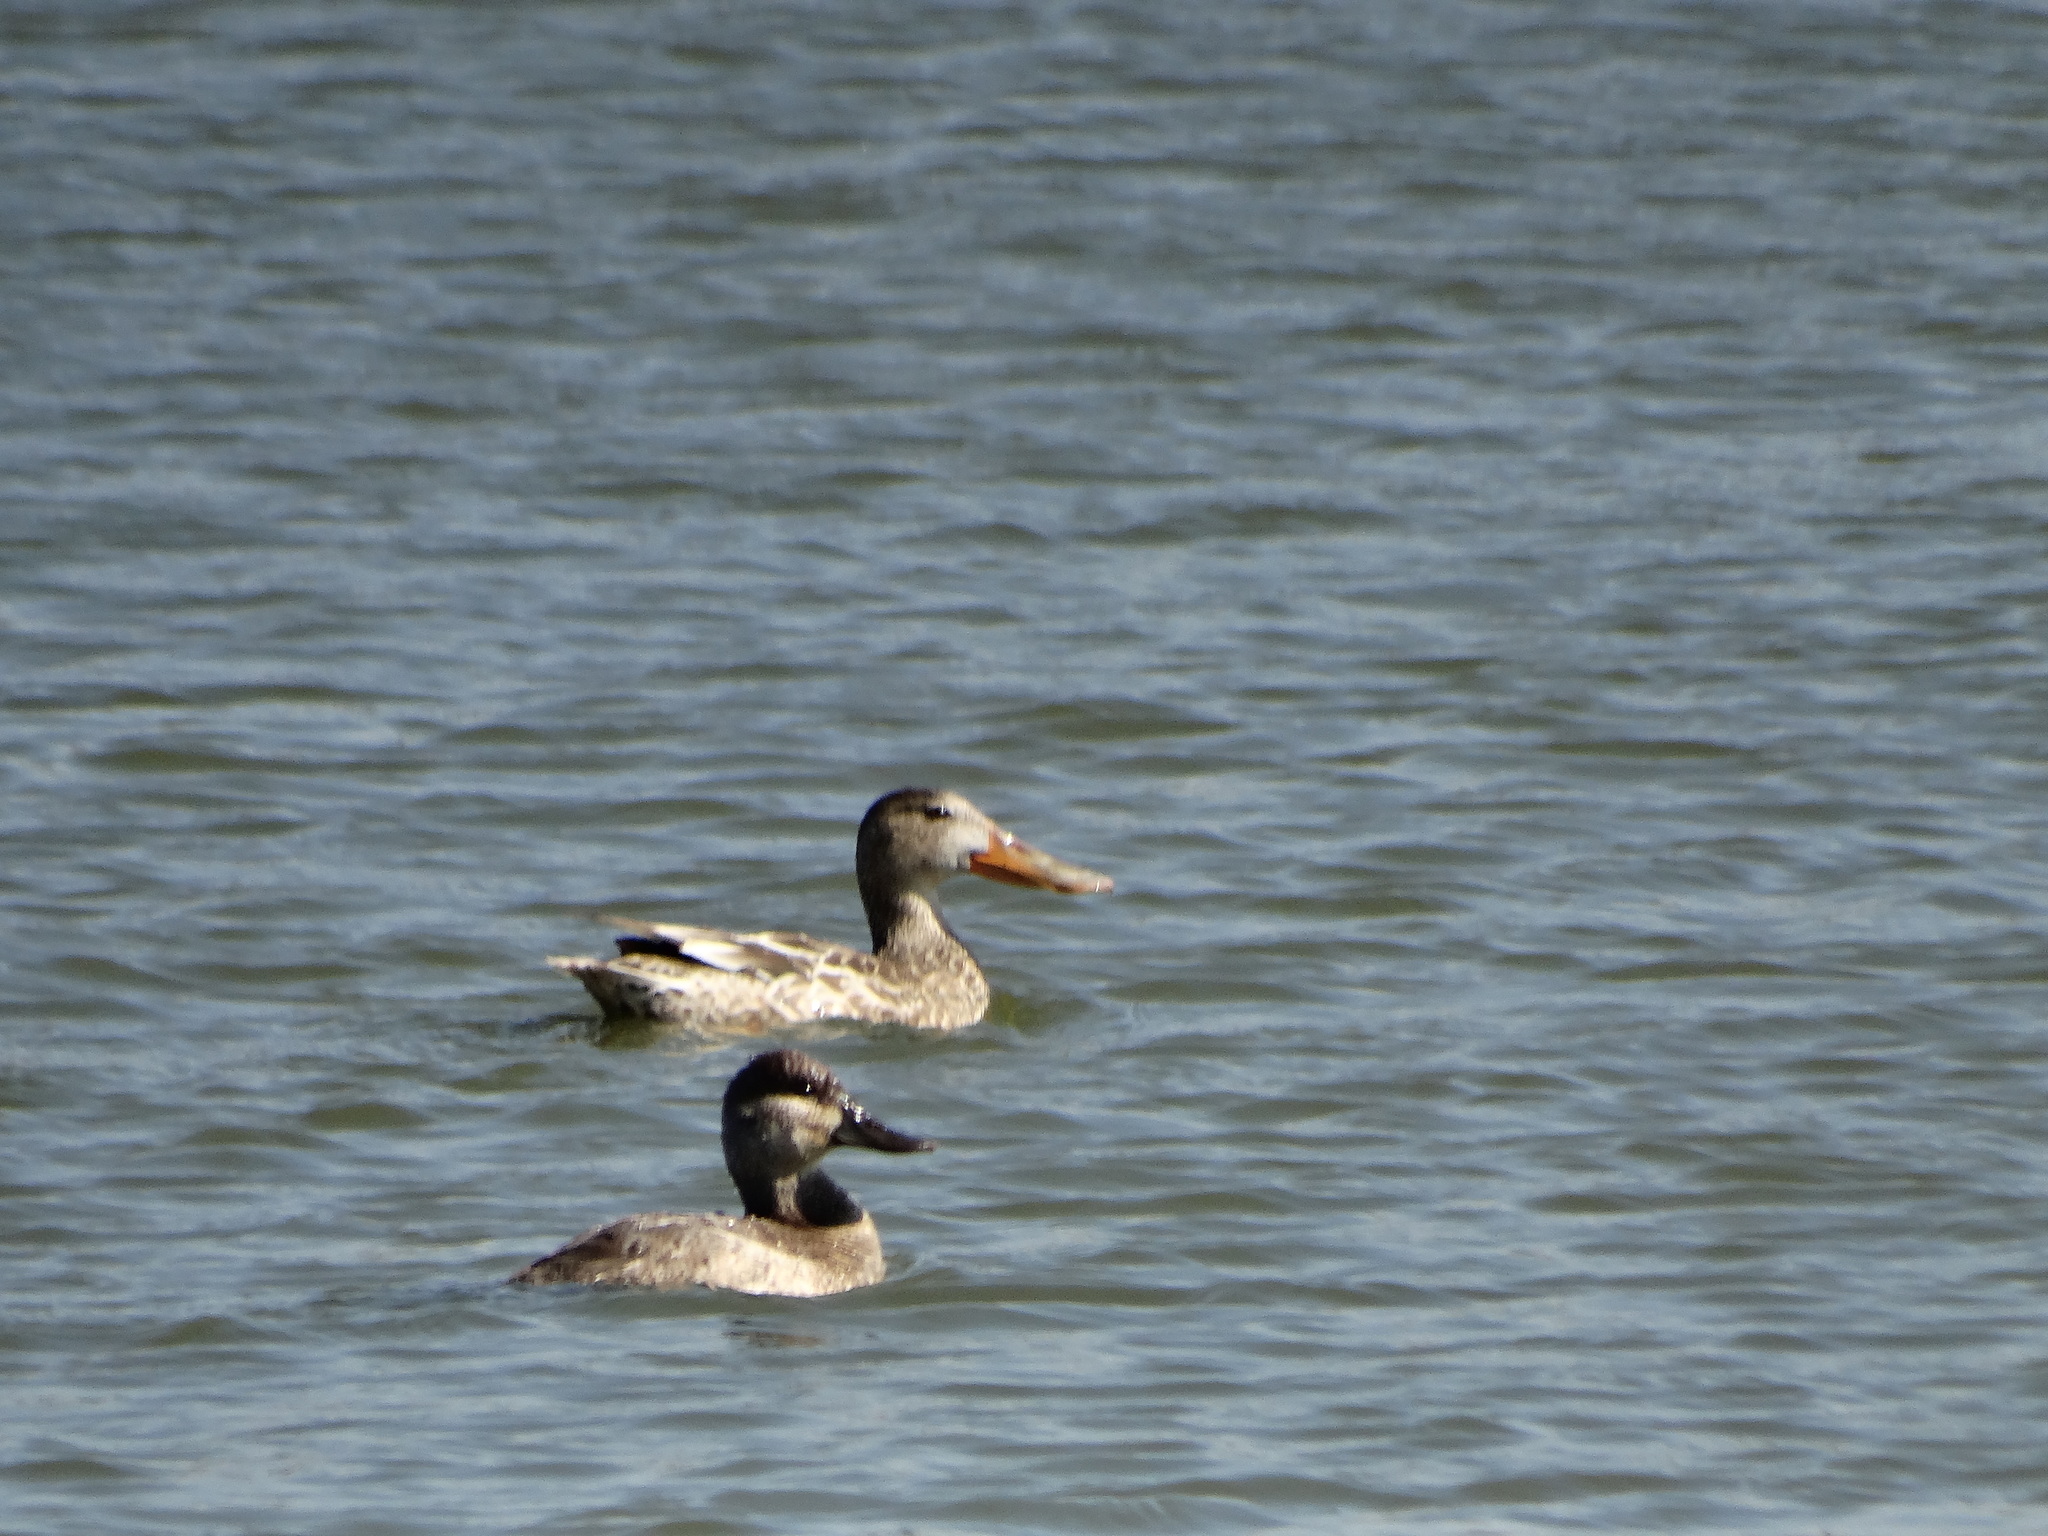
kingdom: Animalia
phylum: Chordata
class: Aves
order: Anseriformes
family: Anatidae
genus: Oxyura
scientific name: Oxyura jamaicensis
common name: Ruddy duck
